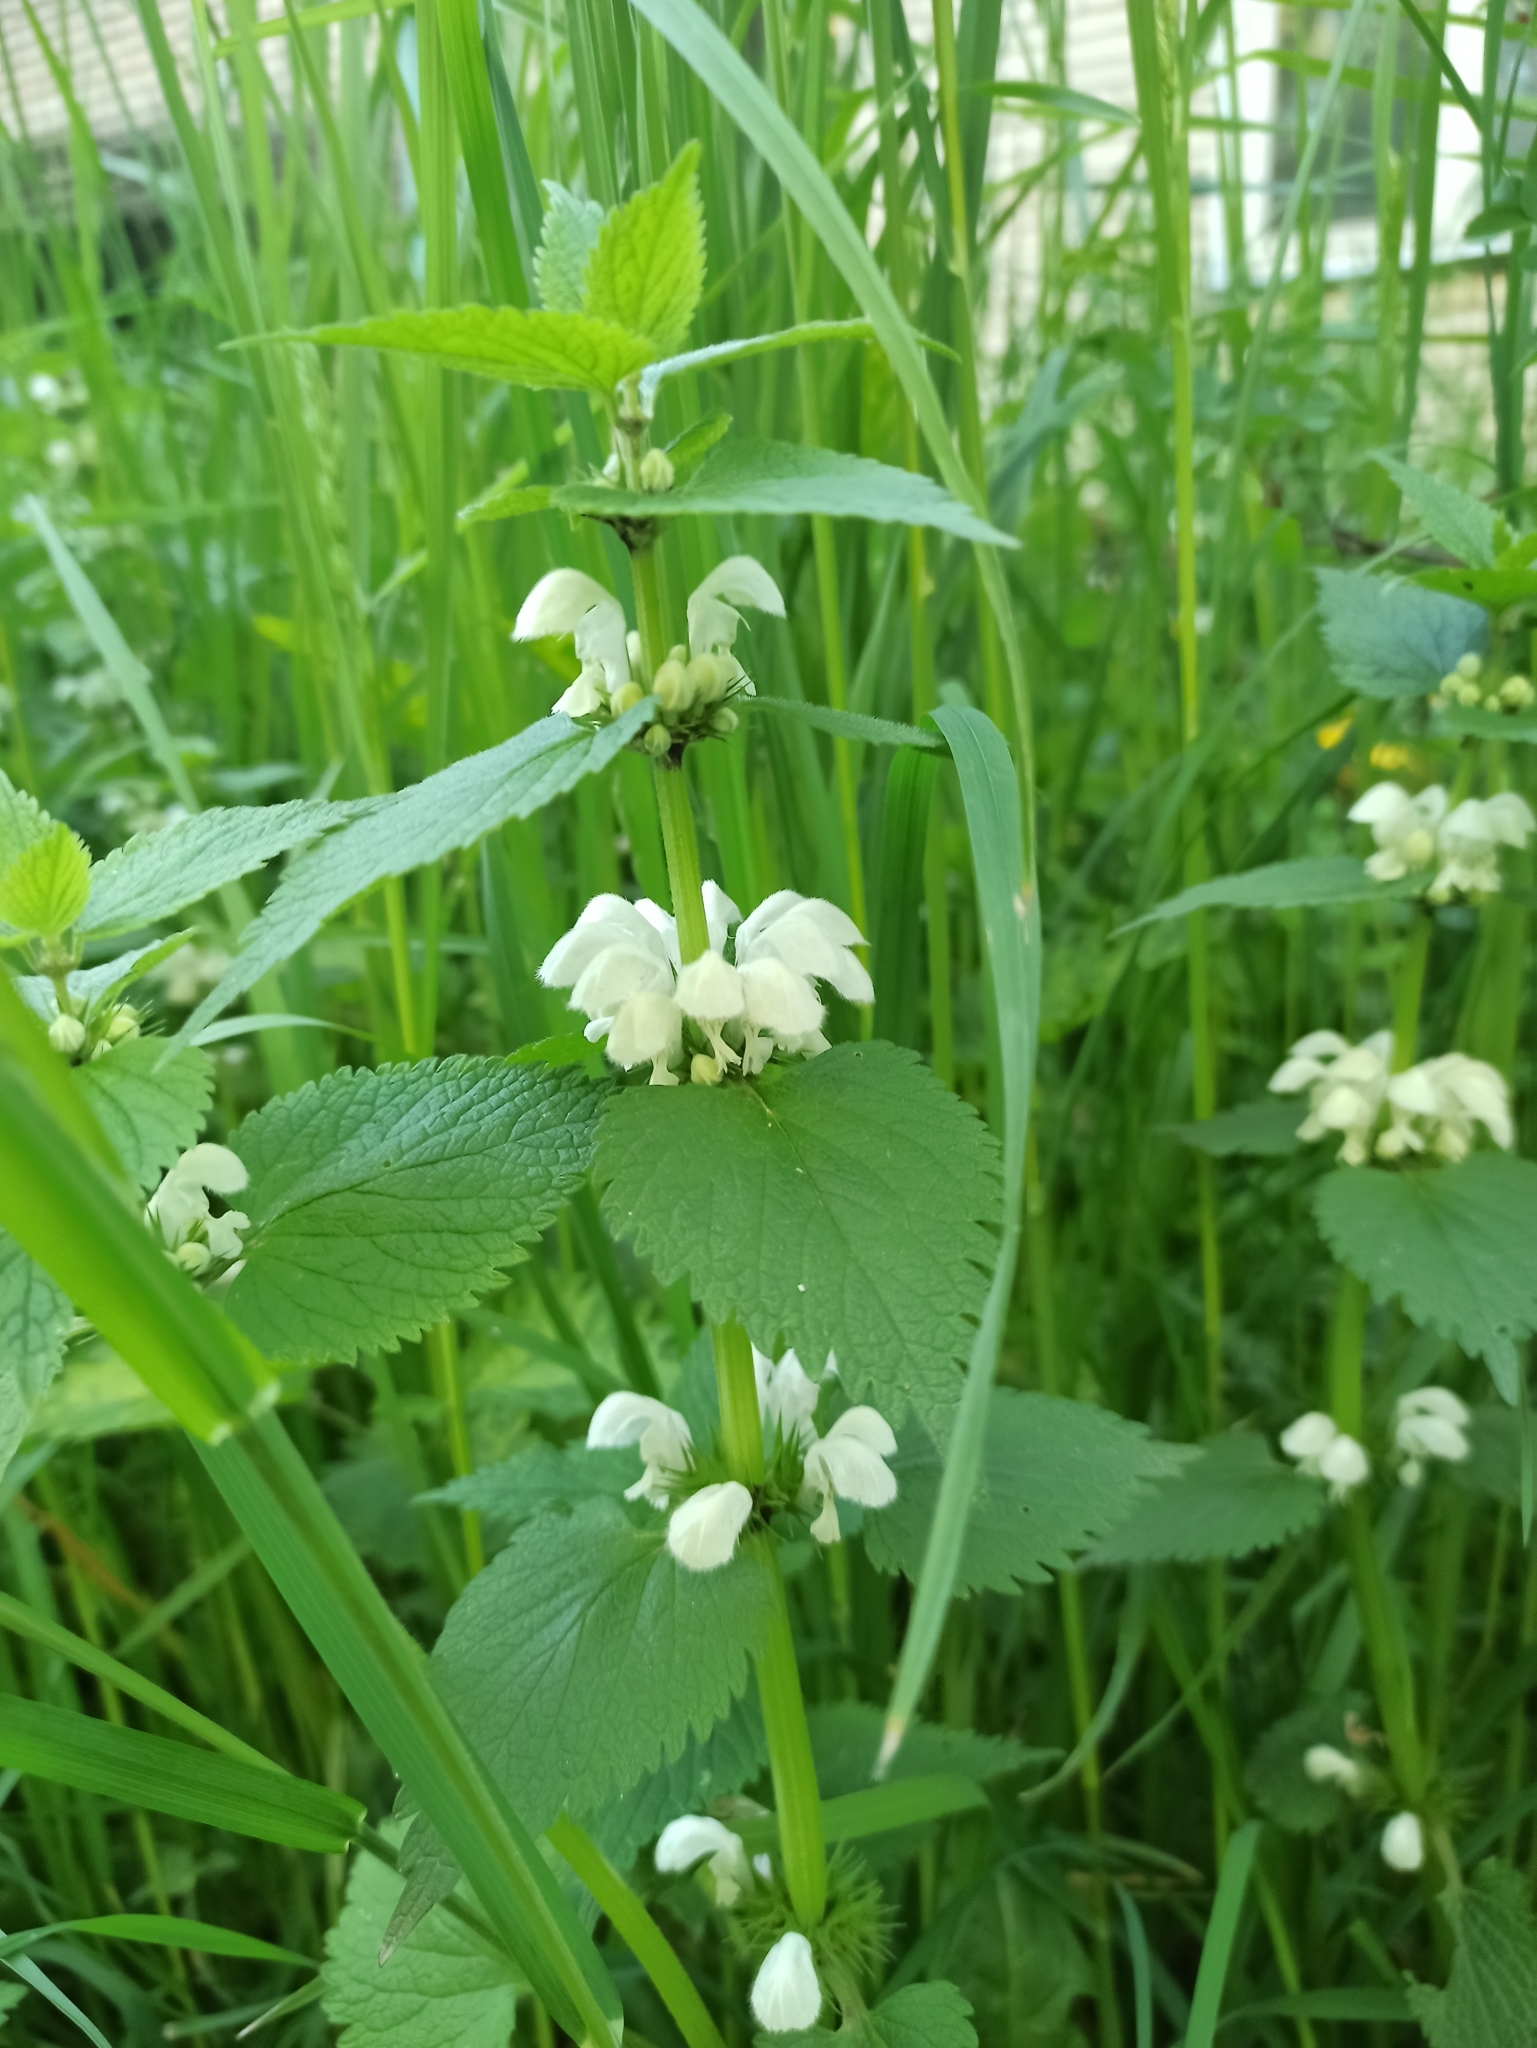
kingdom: Plantae
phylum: Tracheophyta
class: Magnoliopsida
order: Lamiales
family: Lamiaceae
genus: Lamium
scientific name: Lamium album
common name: White dead-nettle
